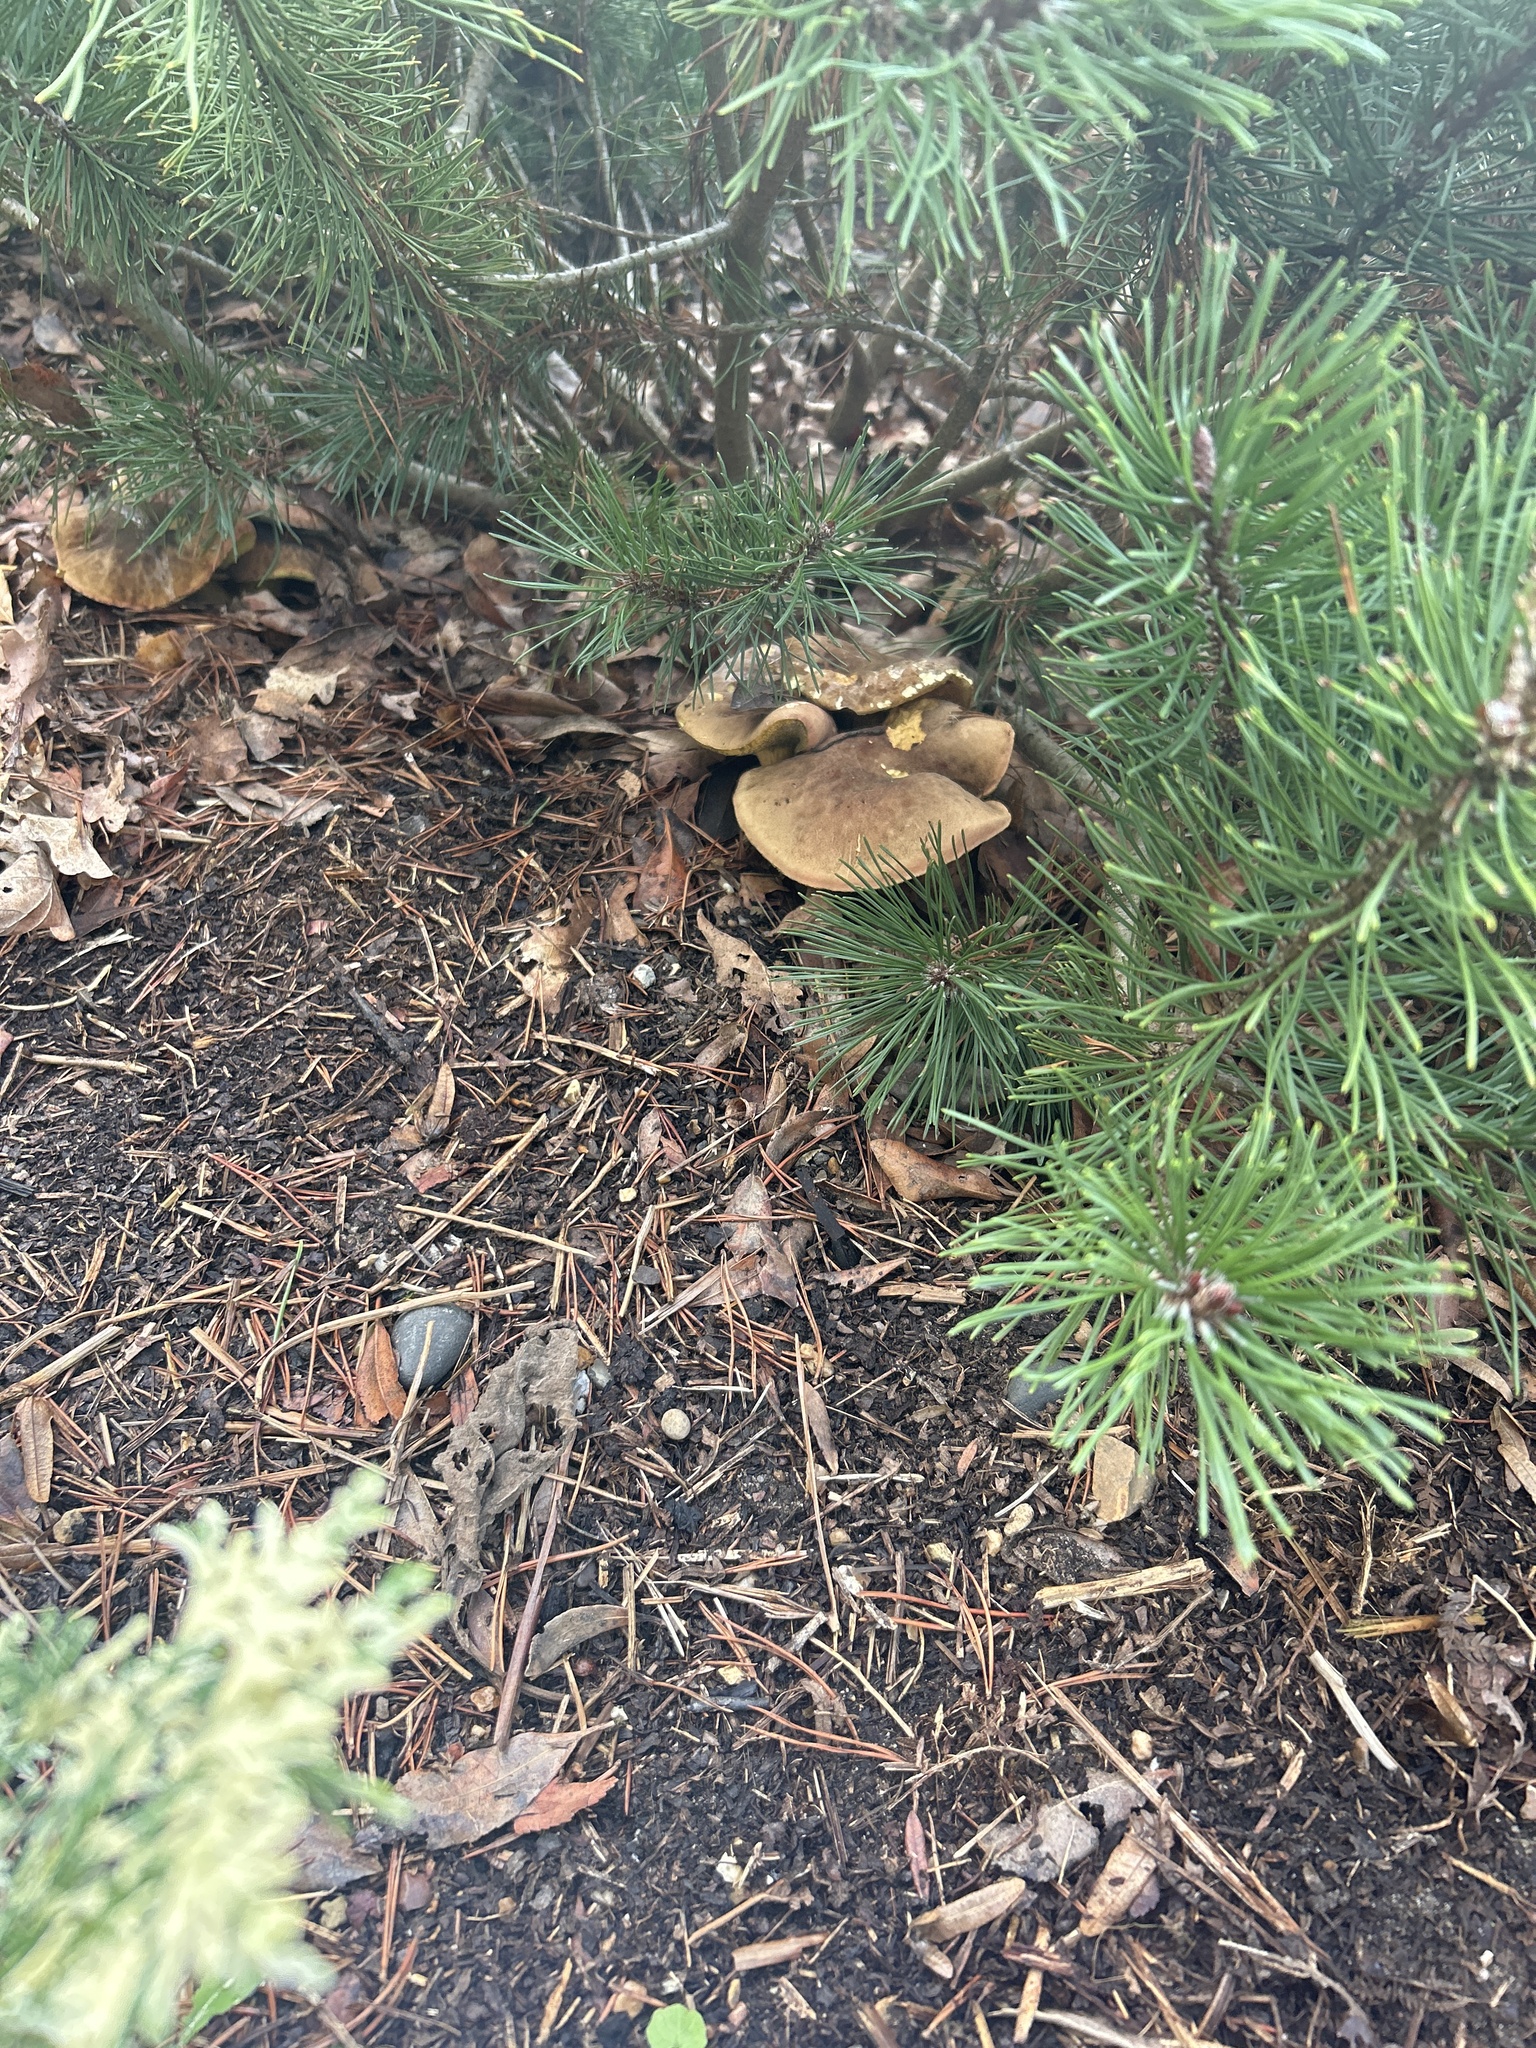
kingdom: Fungi
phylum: Basidiomycota
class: Agaricomycetes
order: Boletales
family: Boletaceae
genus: Xerocomus
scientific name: Xerocomus subtomentosus
